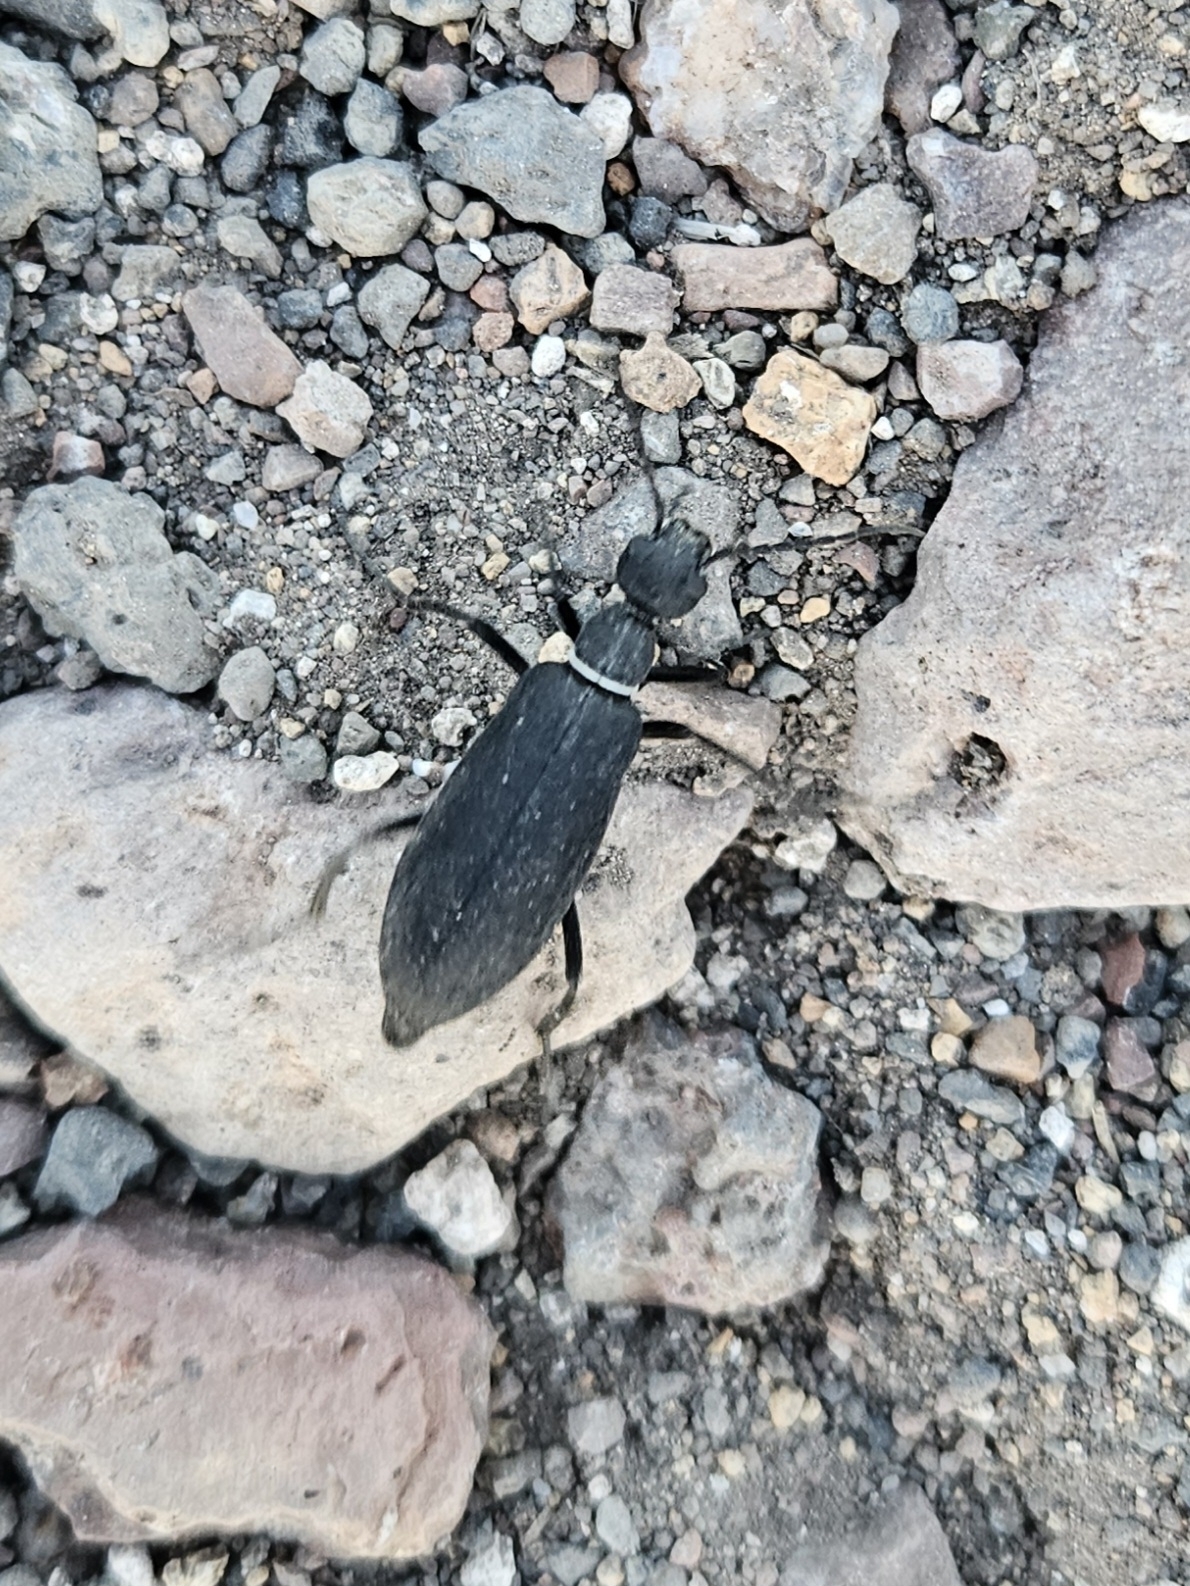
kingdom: Animalia
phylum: Arthropoda
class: Insecta
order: Coleoptera
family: Meloidae
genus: Epicauta
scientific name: Epicauta segmenta
